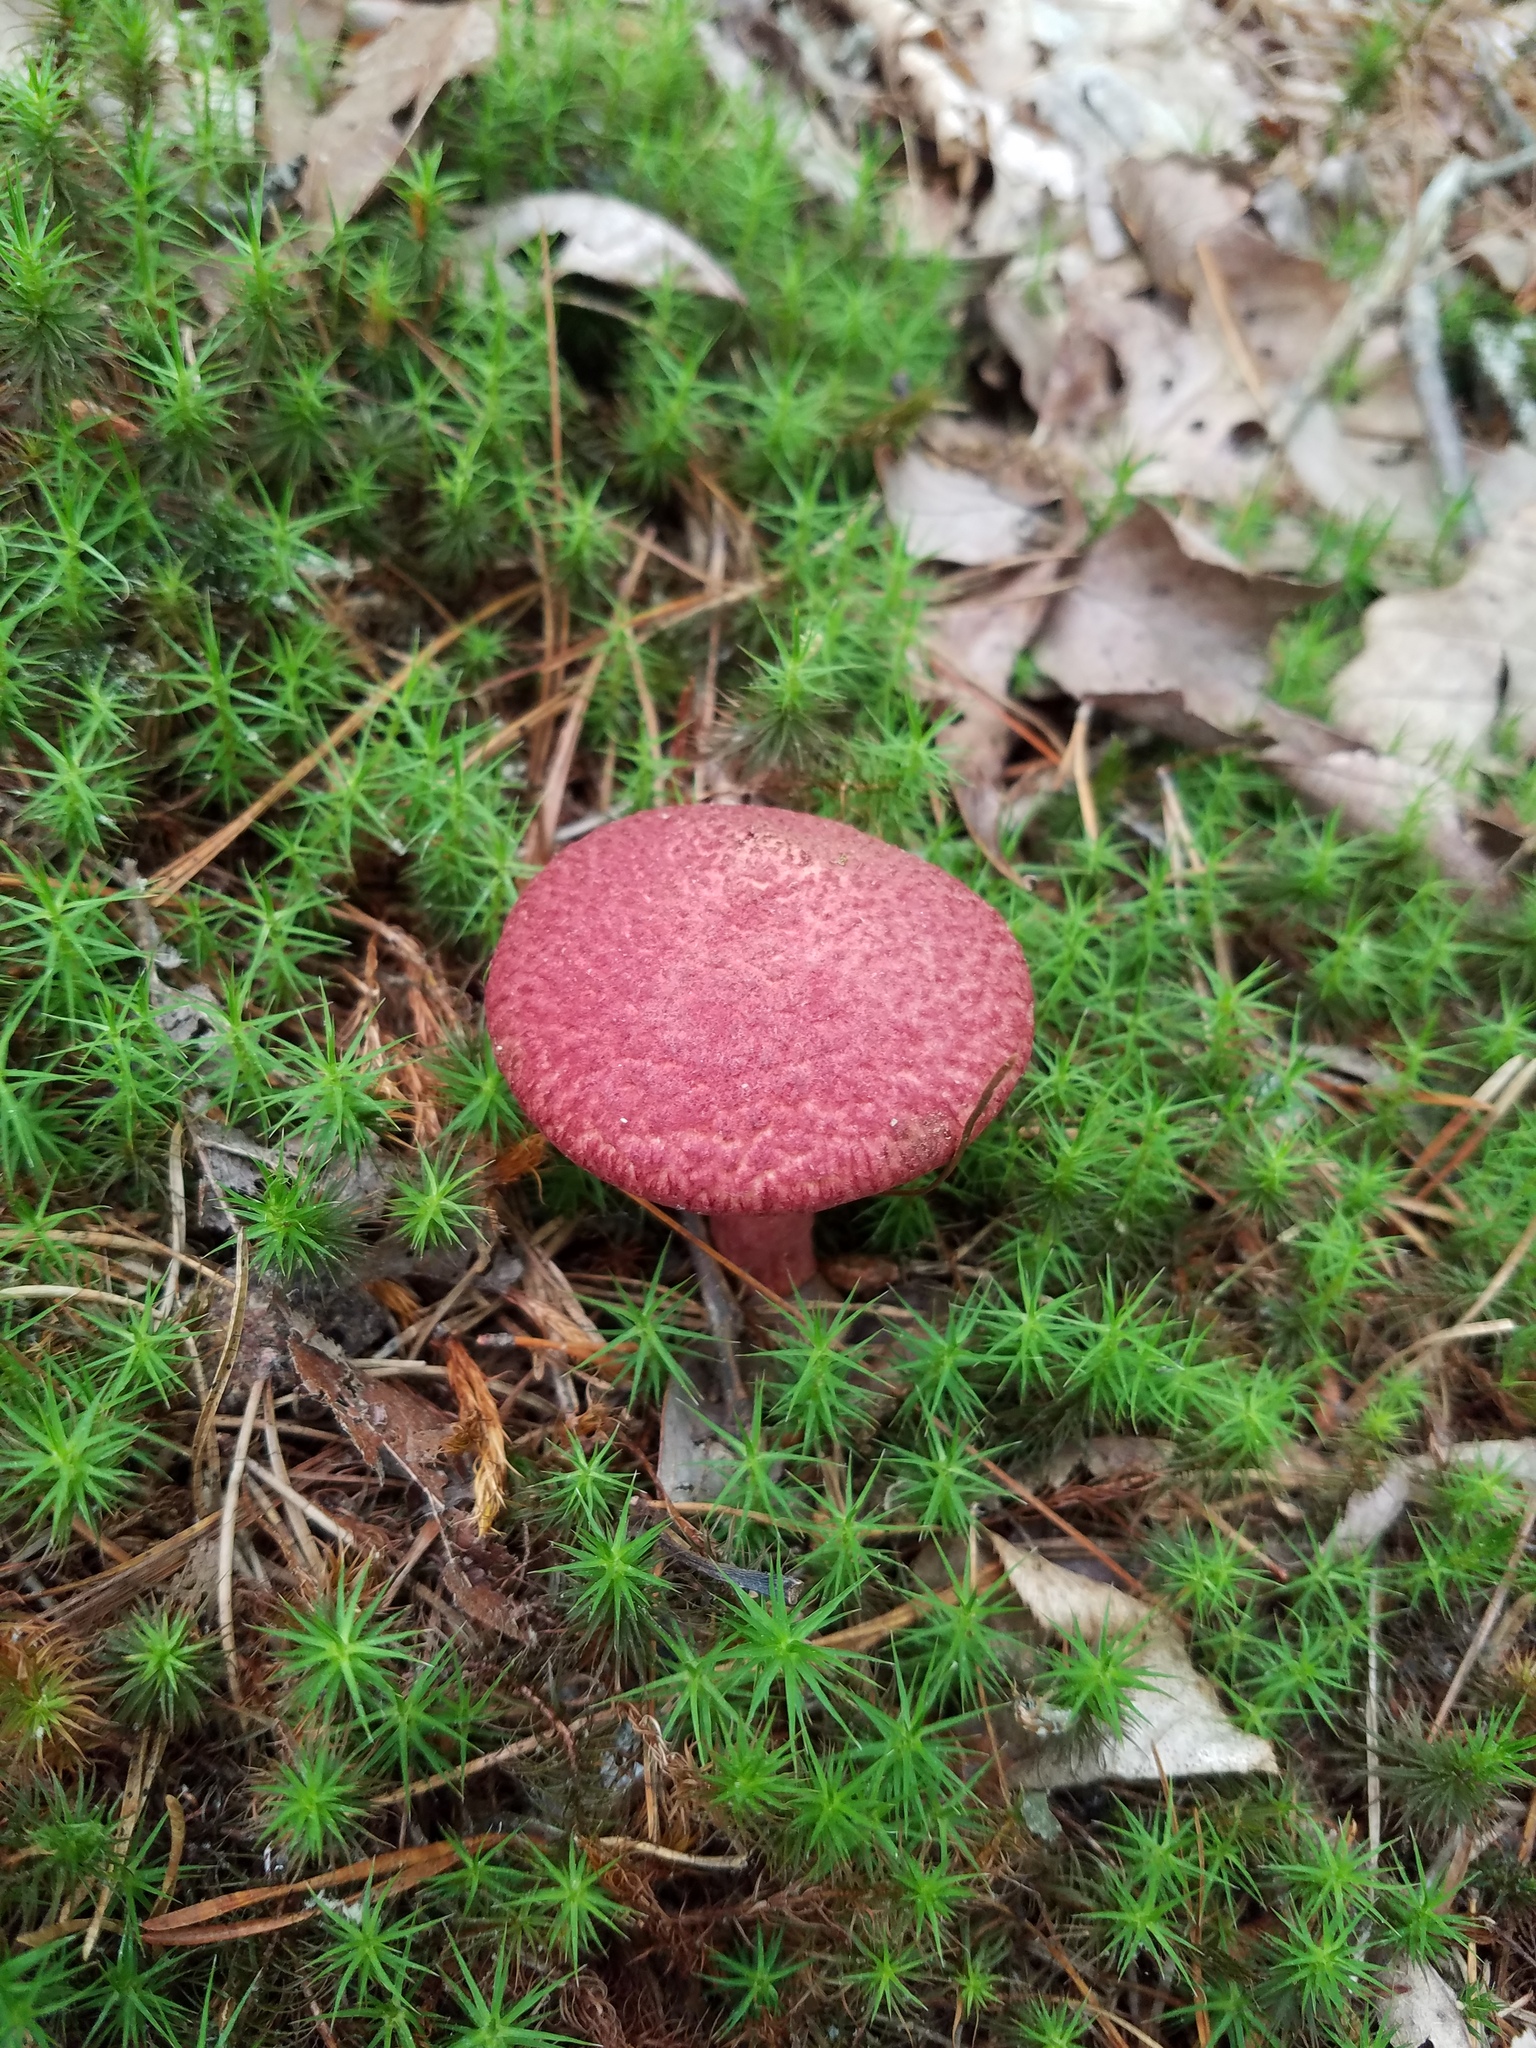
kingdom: Fungi
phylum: Basidiomycota
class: Agaricomycetes
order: Boletales
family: Suillaceae
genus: Suillus
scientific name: Suillus spraguei
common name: Painted suillus
